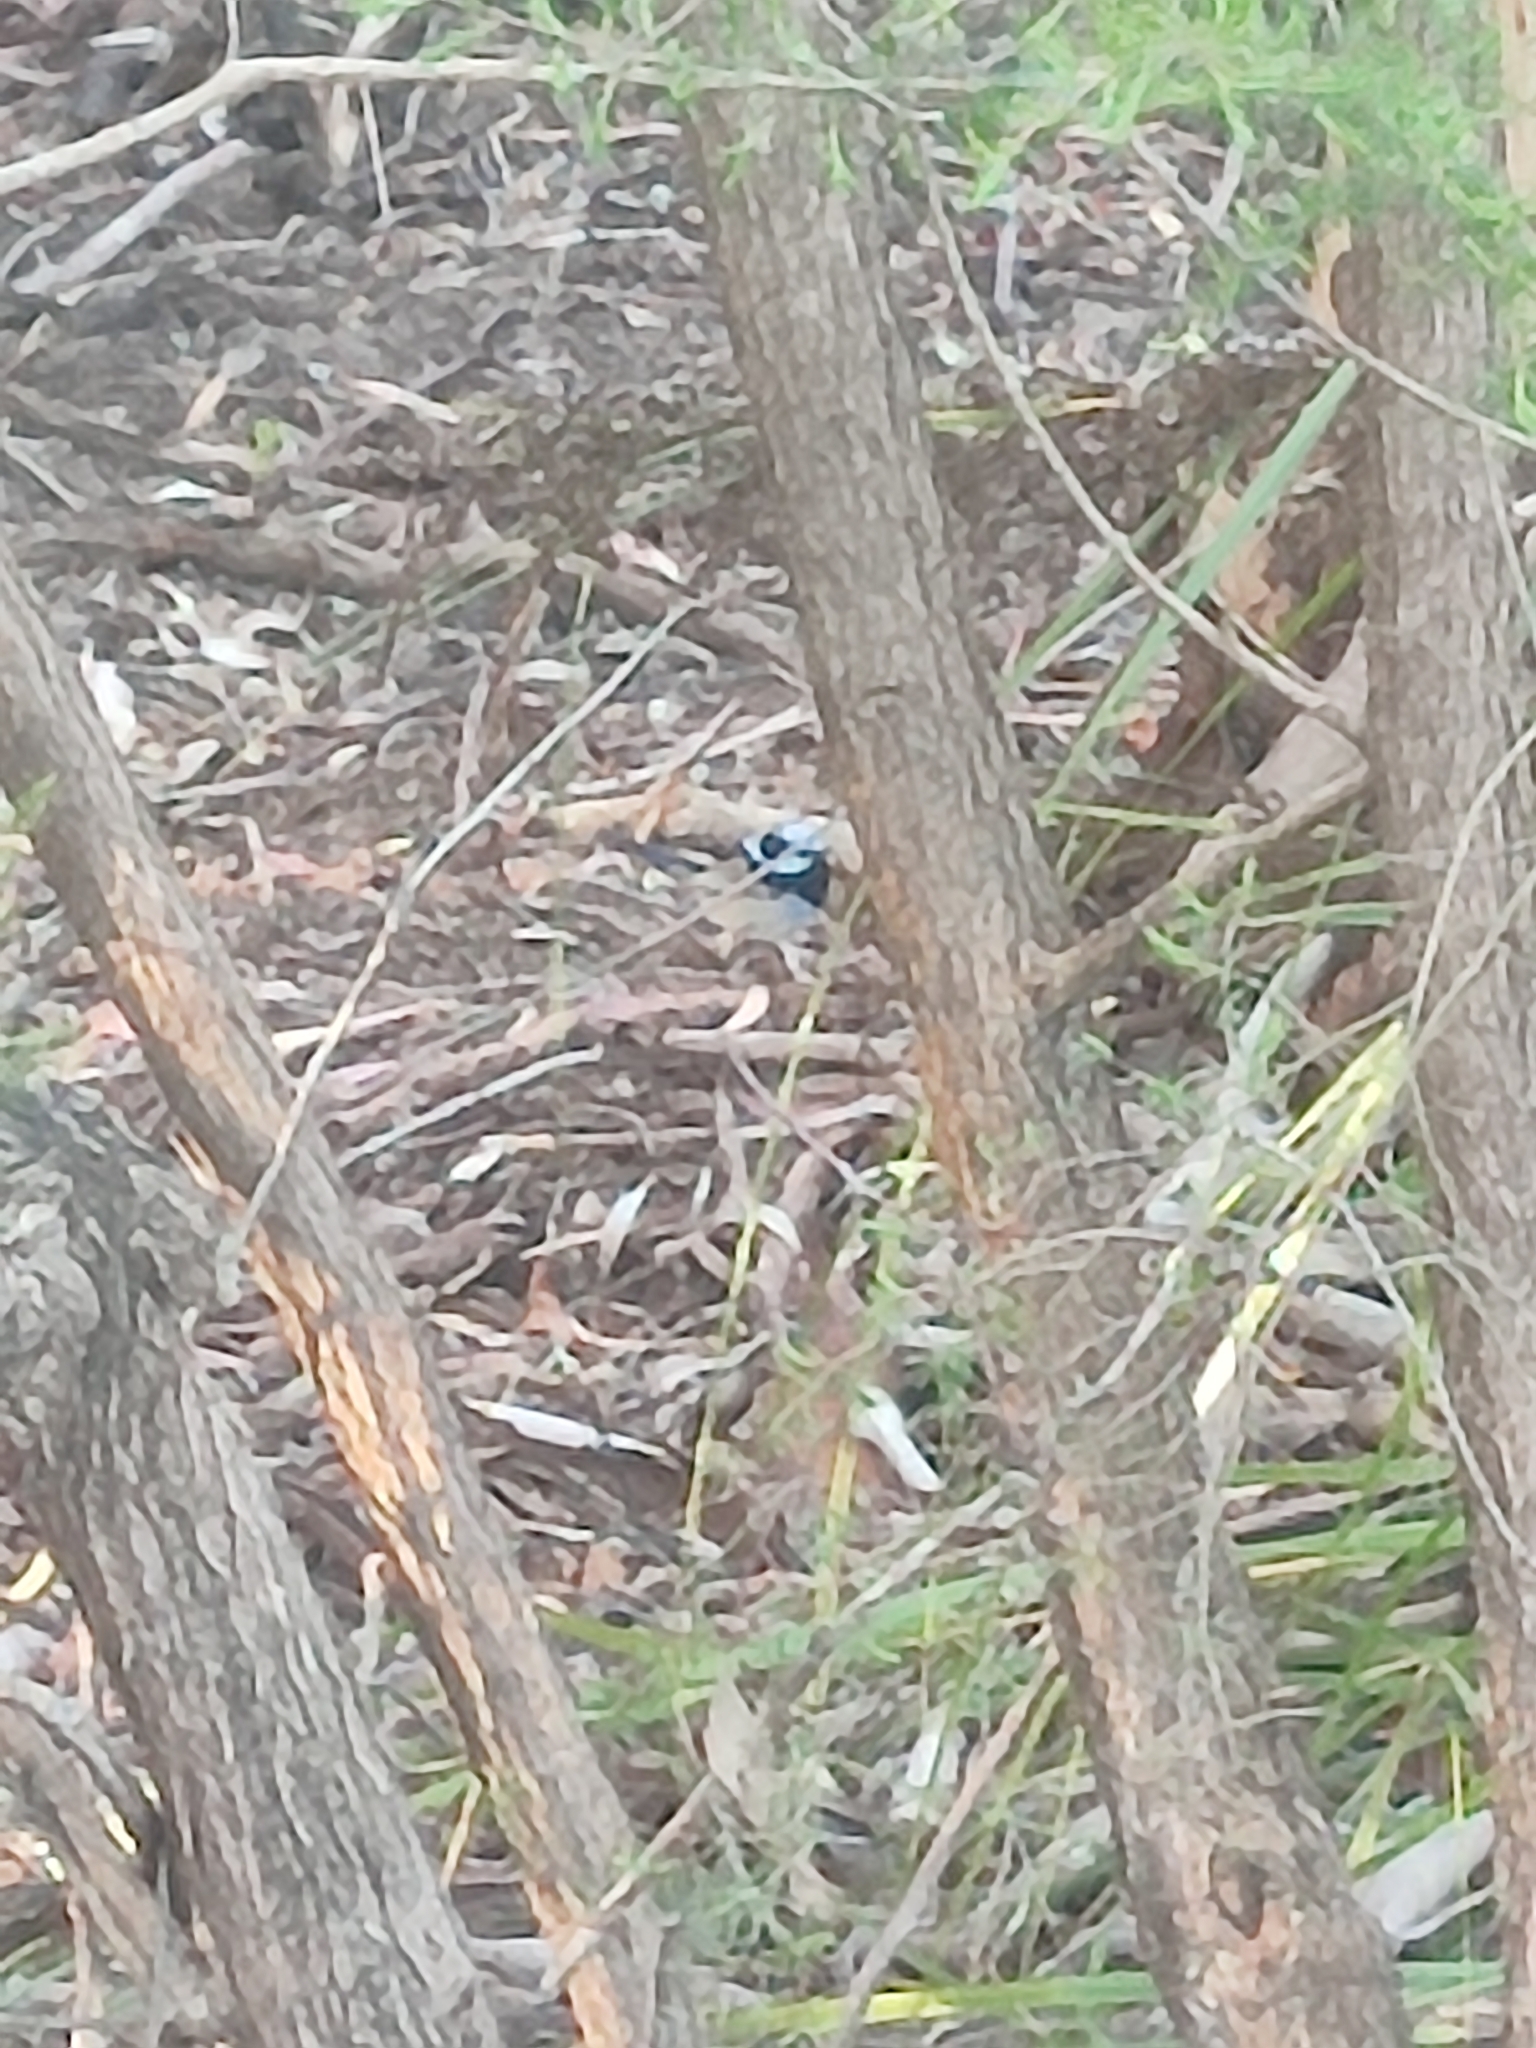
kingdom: Animalia
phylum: Chordata
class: Aves
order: Passeriformes
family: Maluridae
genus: Malurus
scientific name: Malurus cyaneus
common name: Superb fairywren
